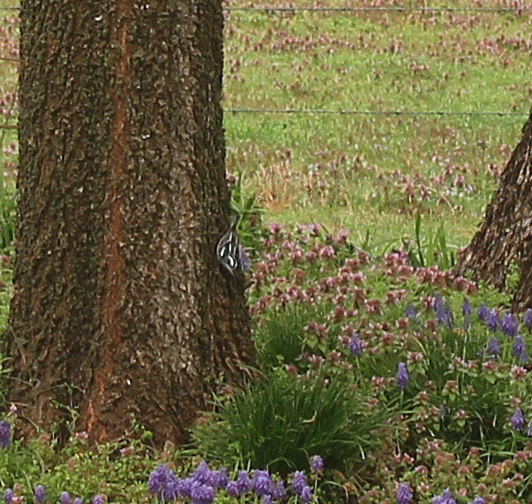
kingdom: Animalia
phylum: Chordata
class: Aves
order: Passeriformes
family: Parulidae
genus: Mniotilta
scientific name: Mniotilta varia
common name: Black-and-white warbler
